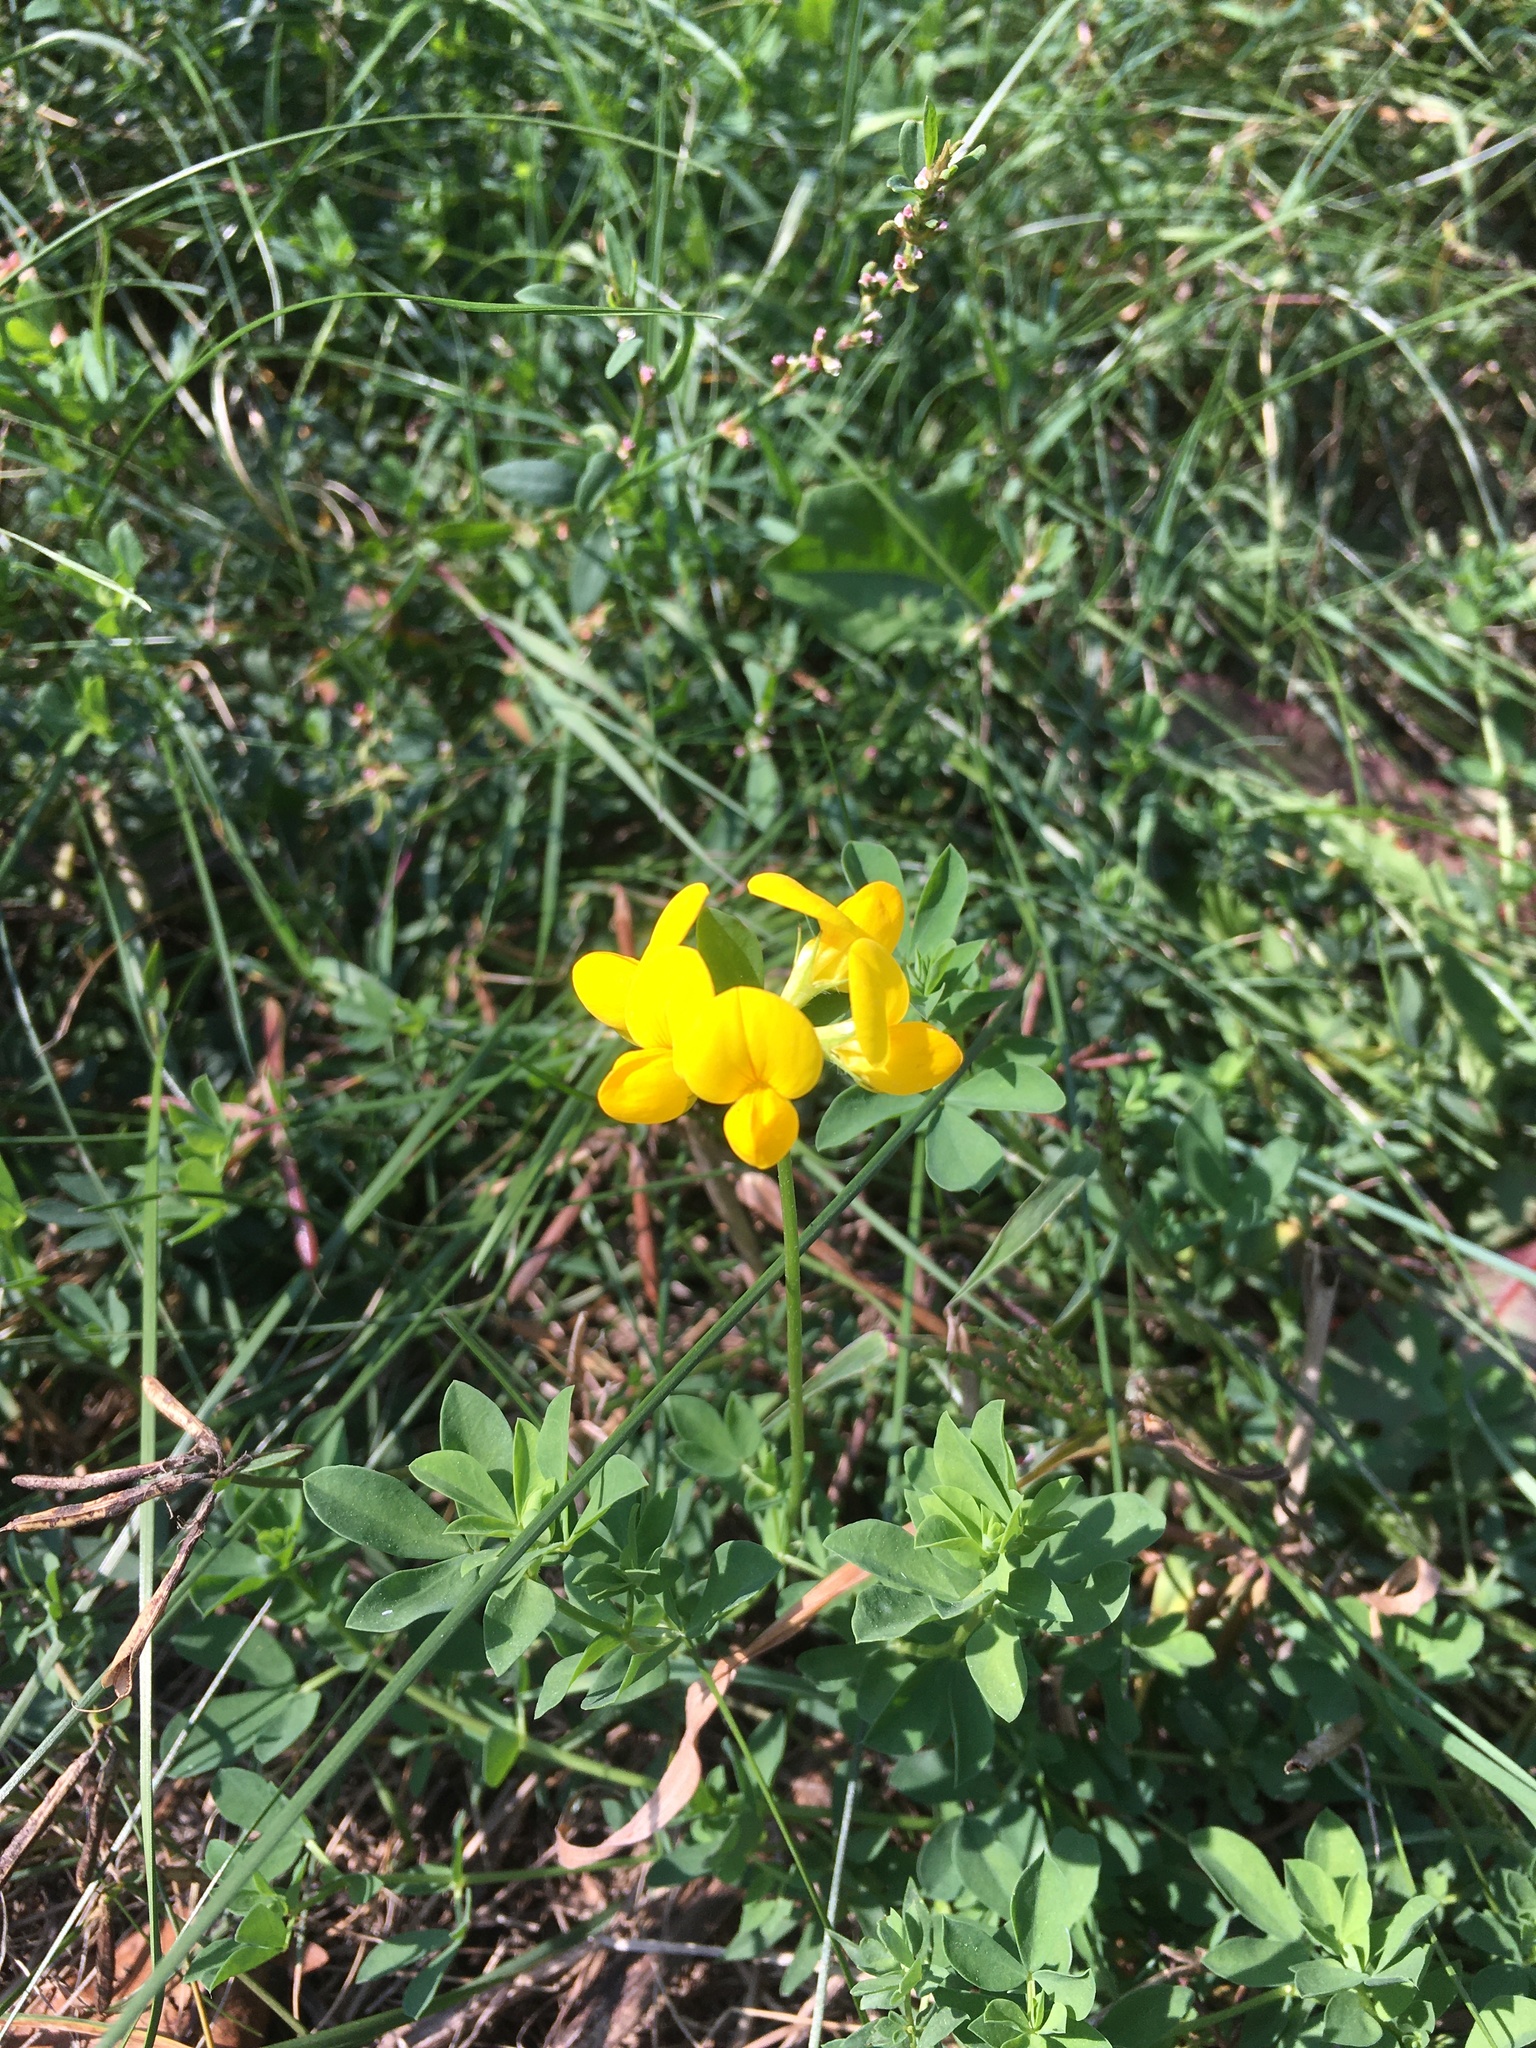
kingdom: Plantae
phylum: Tracheophyta
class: Magnoliopsida
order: Fabales
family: Fabaceae
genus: Lotus
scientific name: Lotus corniculatus
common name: Common bird's-foot-trefoil
